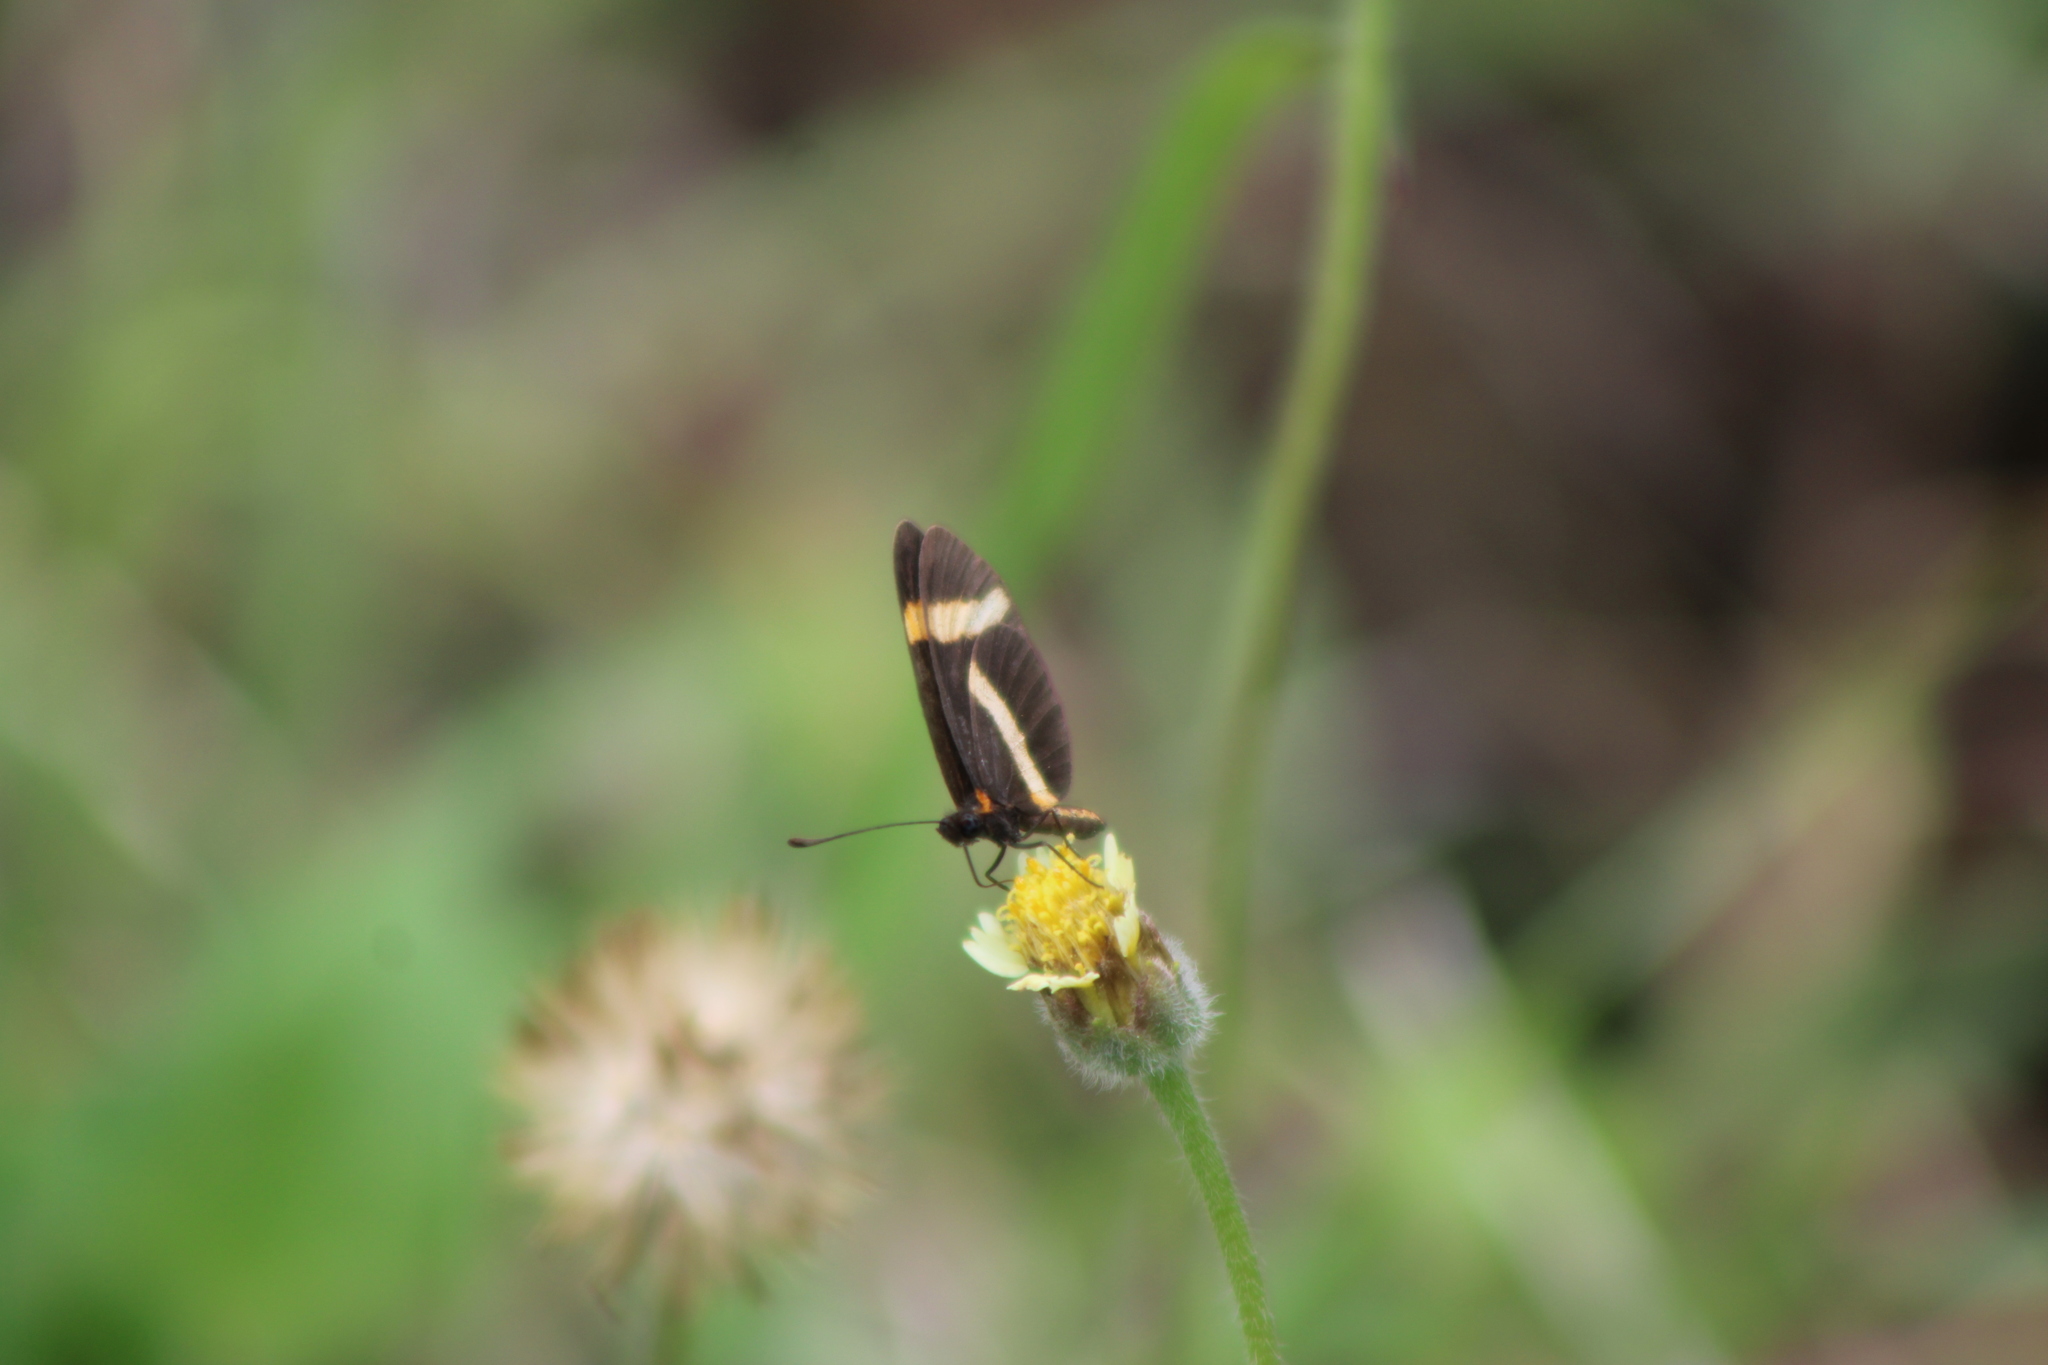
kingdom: Animalia
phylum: Arthropoda
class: Insecta
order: Lepidoptera
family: Nymphalidae
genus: Microtia
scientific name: Microtia elva
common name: Elf
